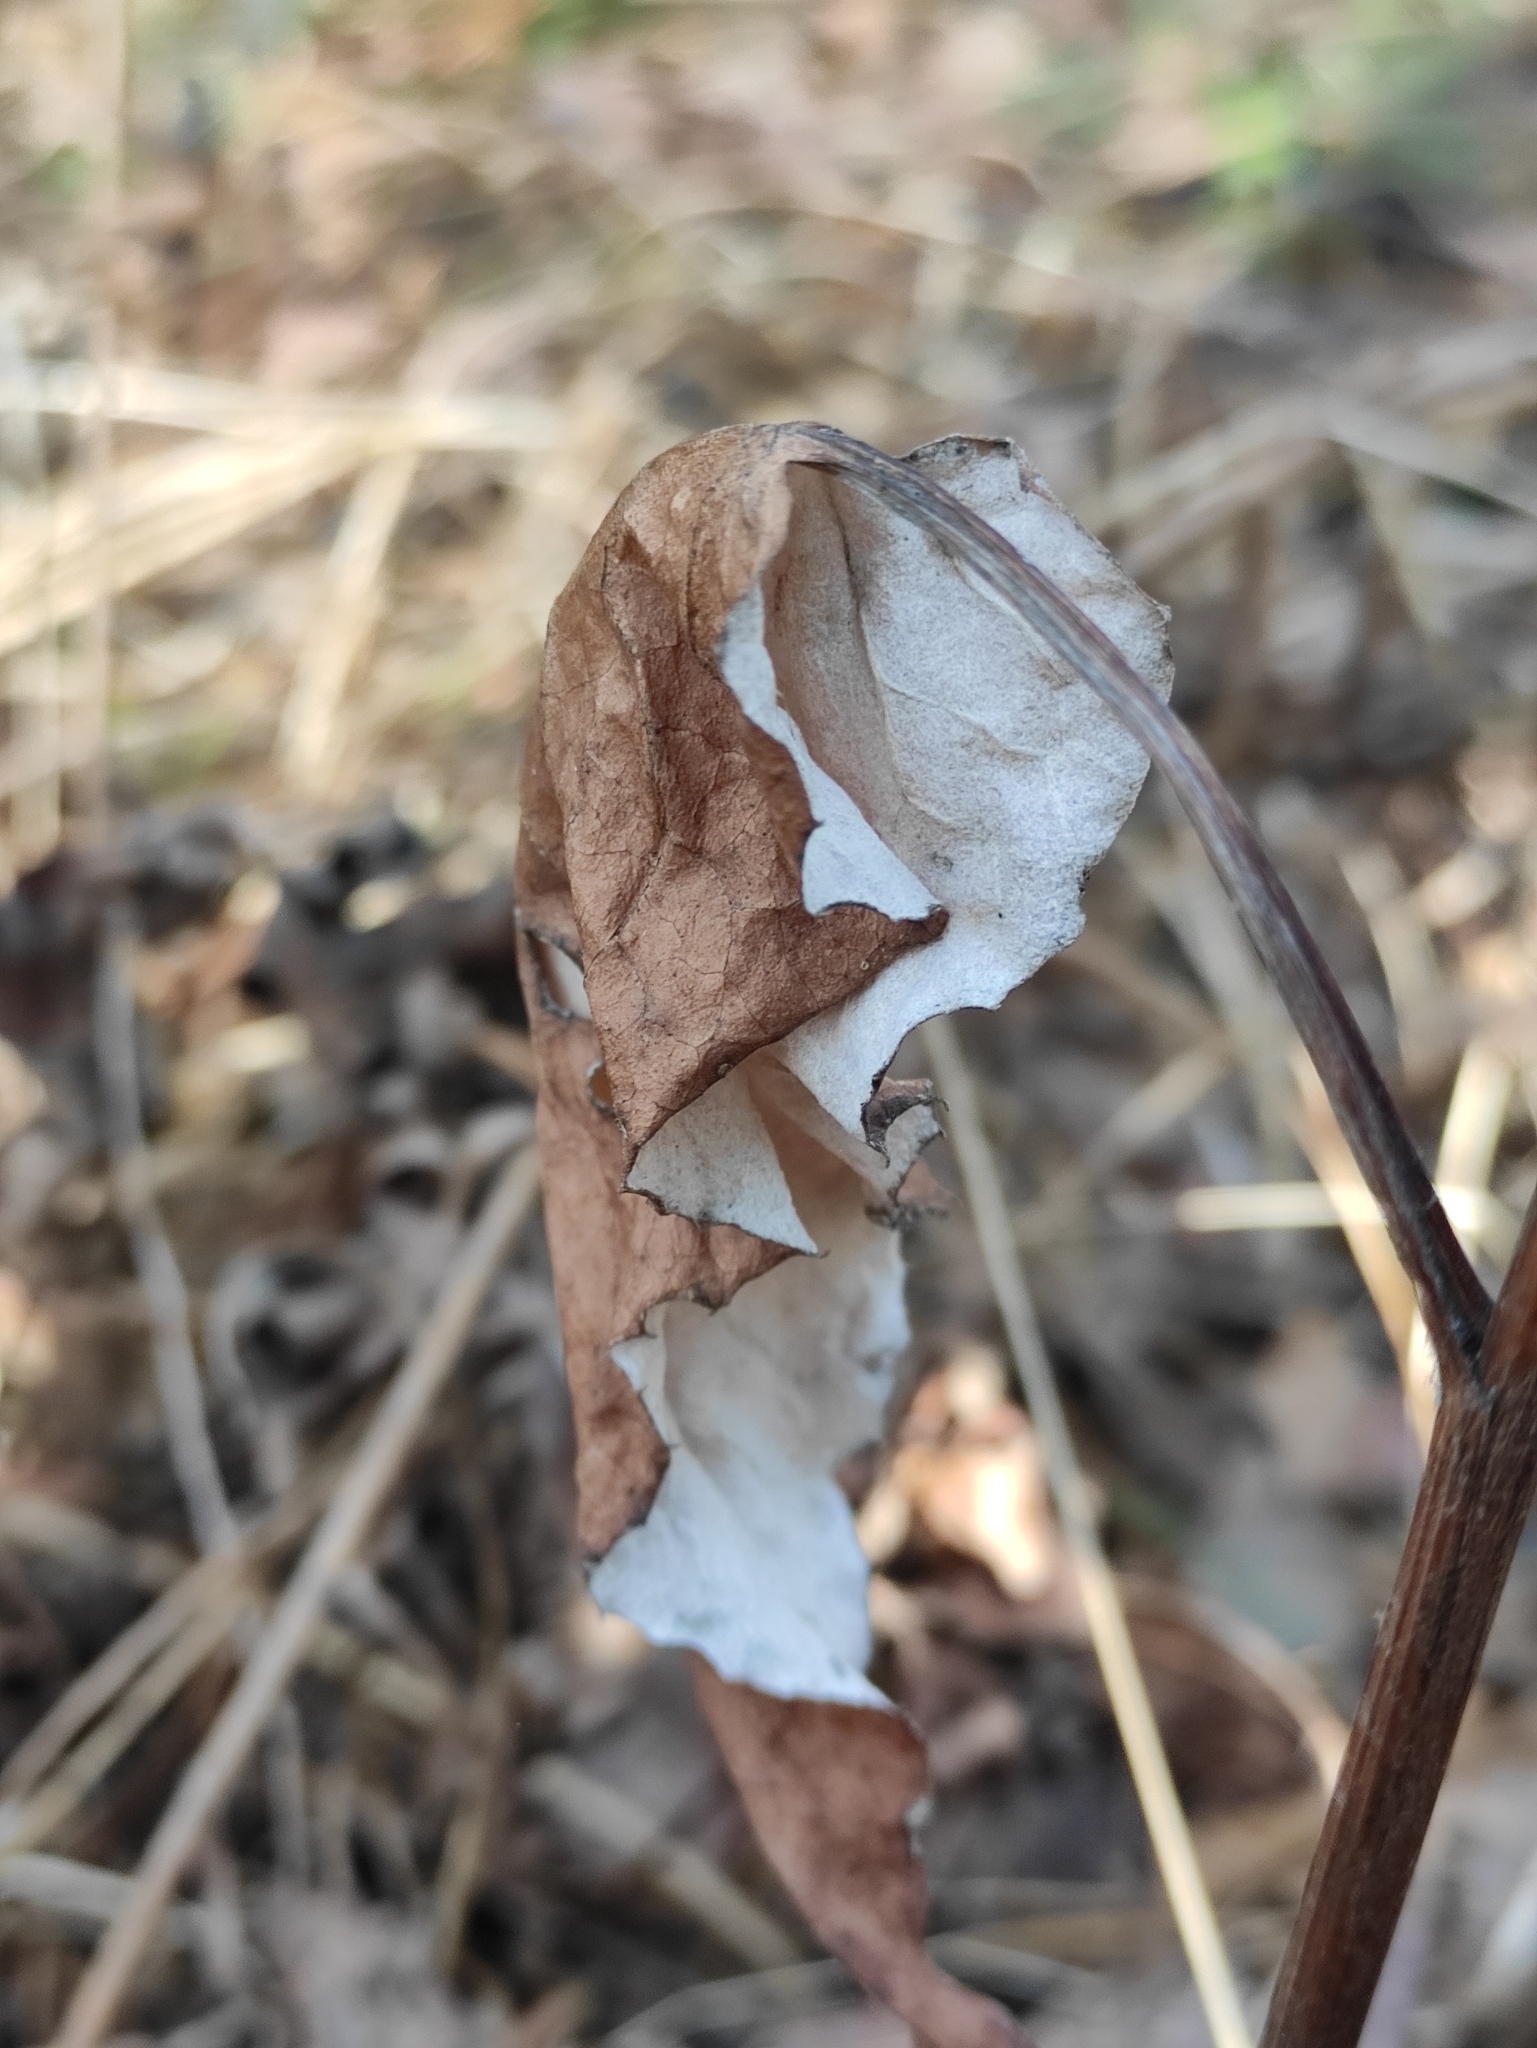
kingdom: Plantae
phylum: Tracheophyta
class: Magnoliopsida
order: Asterales
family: Asteraceae
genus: Saussurea
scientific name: Saussurea controversa
